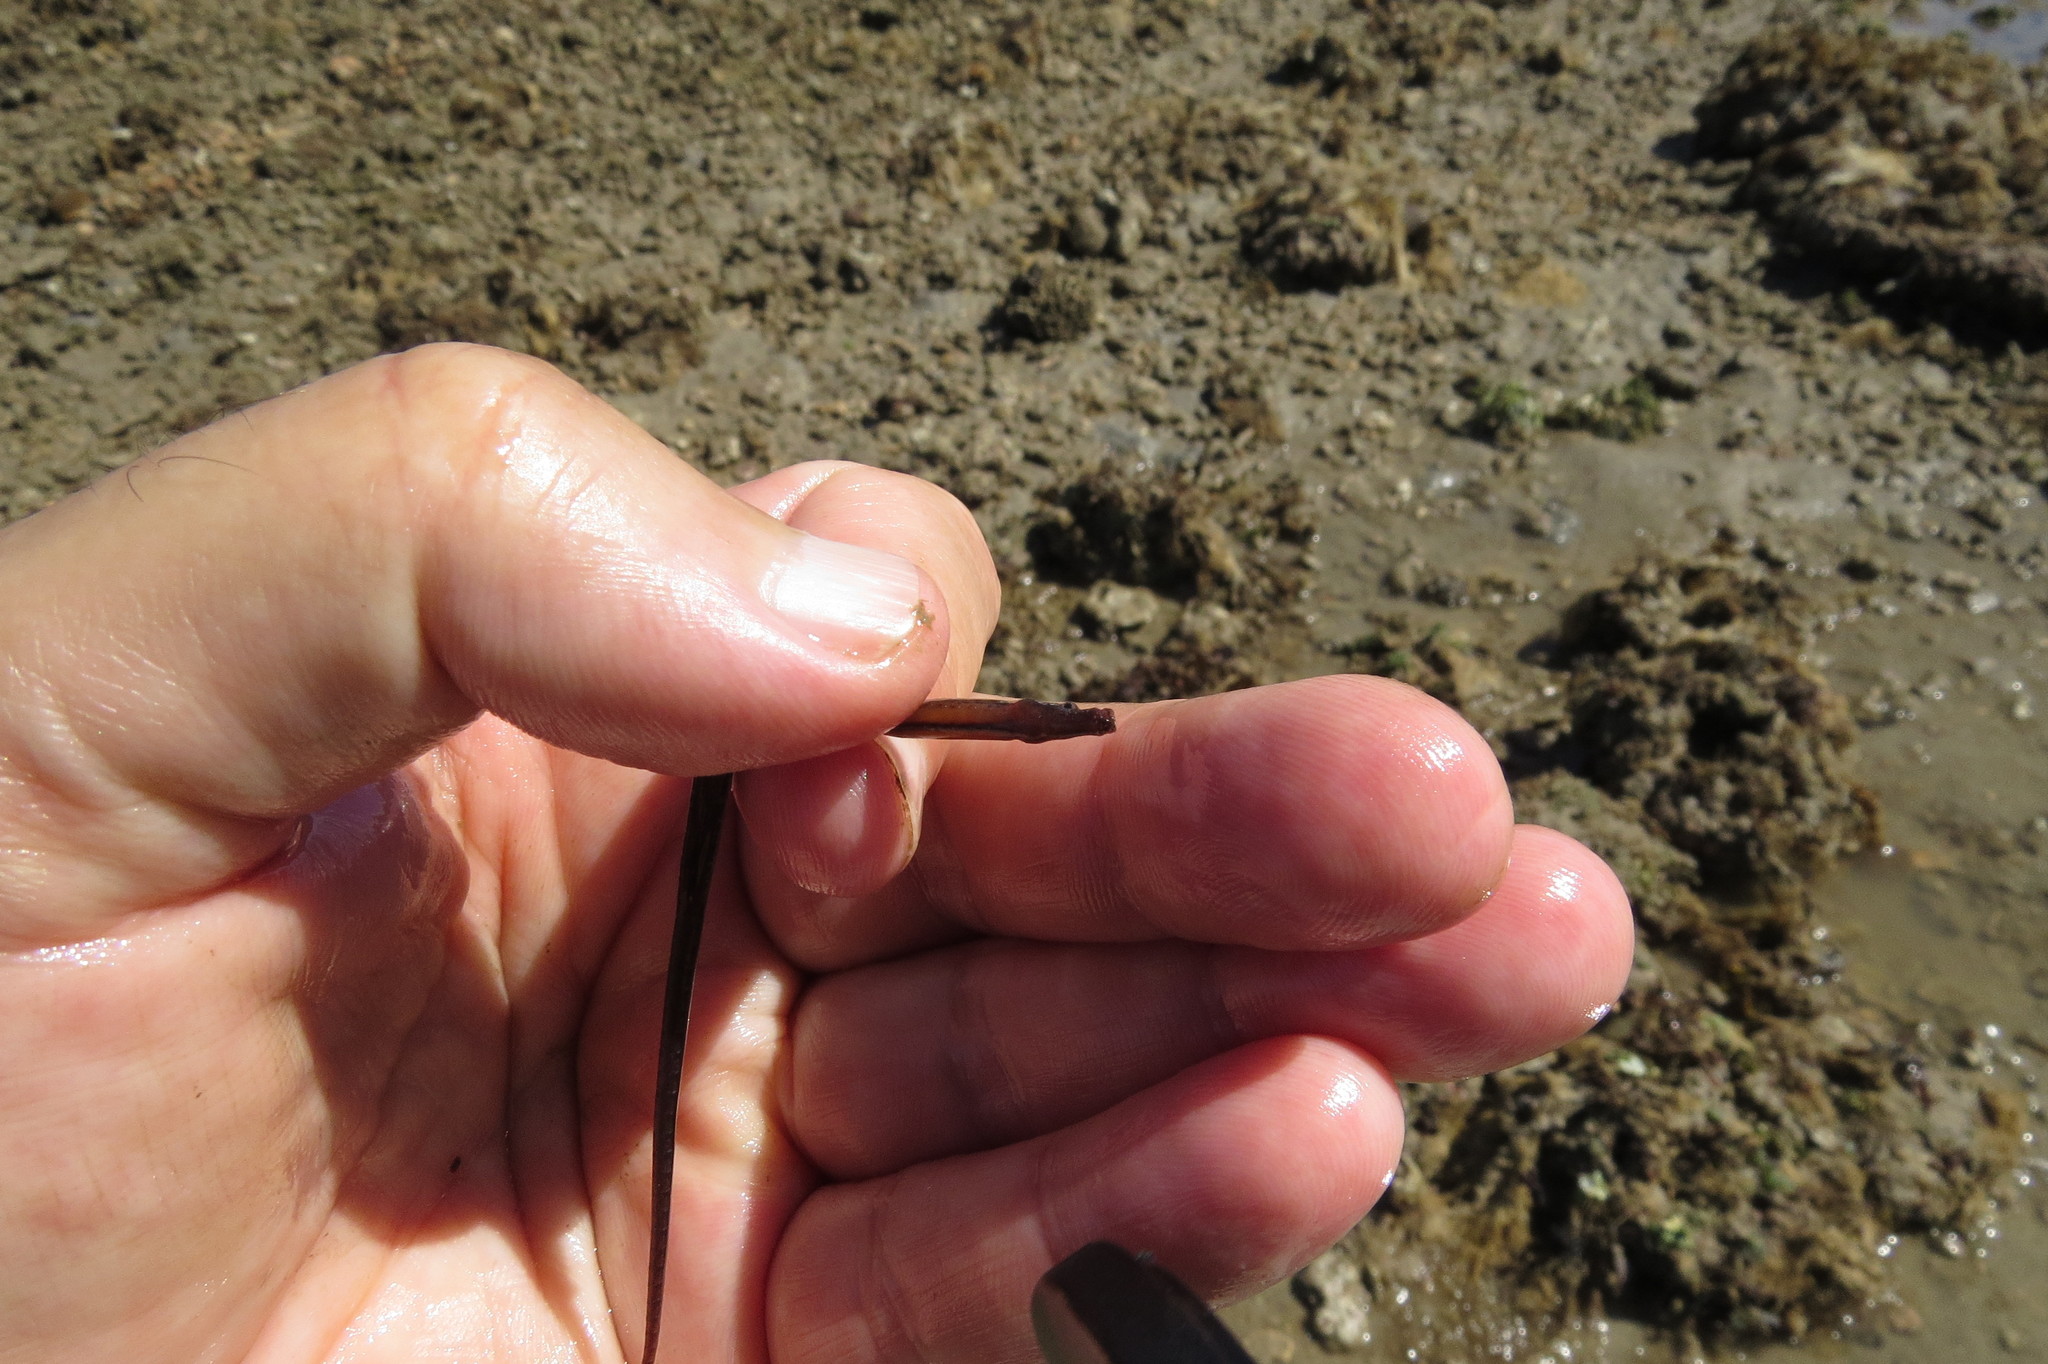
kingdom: Animalia
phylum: Chordata
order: Syngnathiformes
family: Syngnathidae
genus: Halicampus
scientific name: Halicampus boothae
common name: Booth's pipefish
